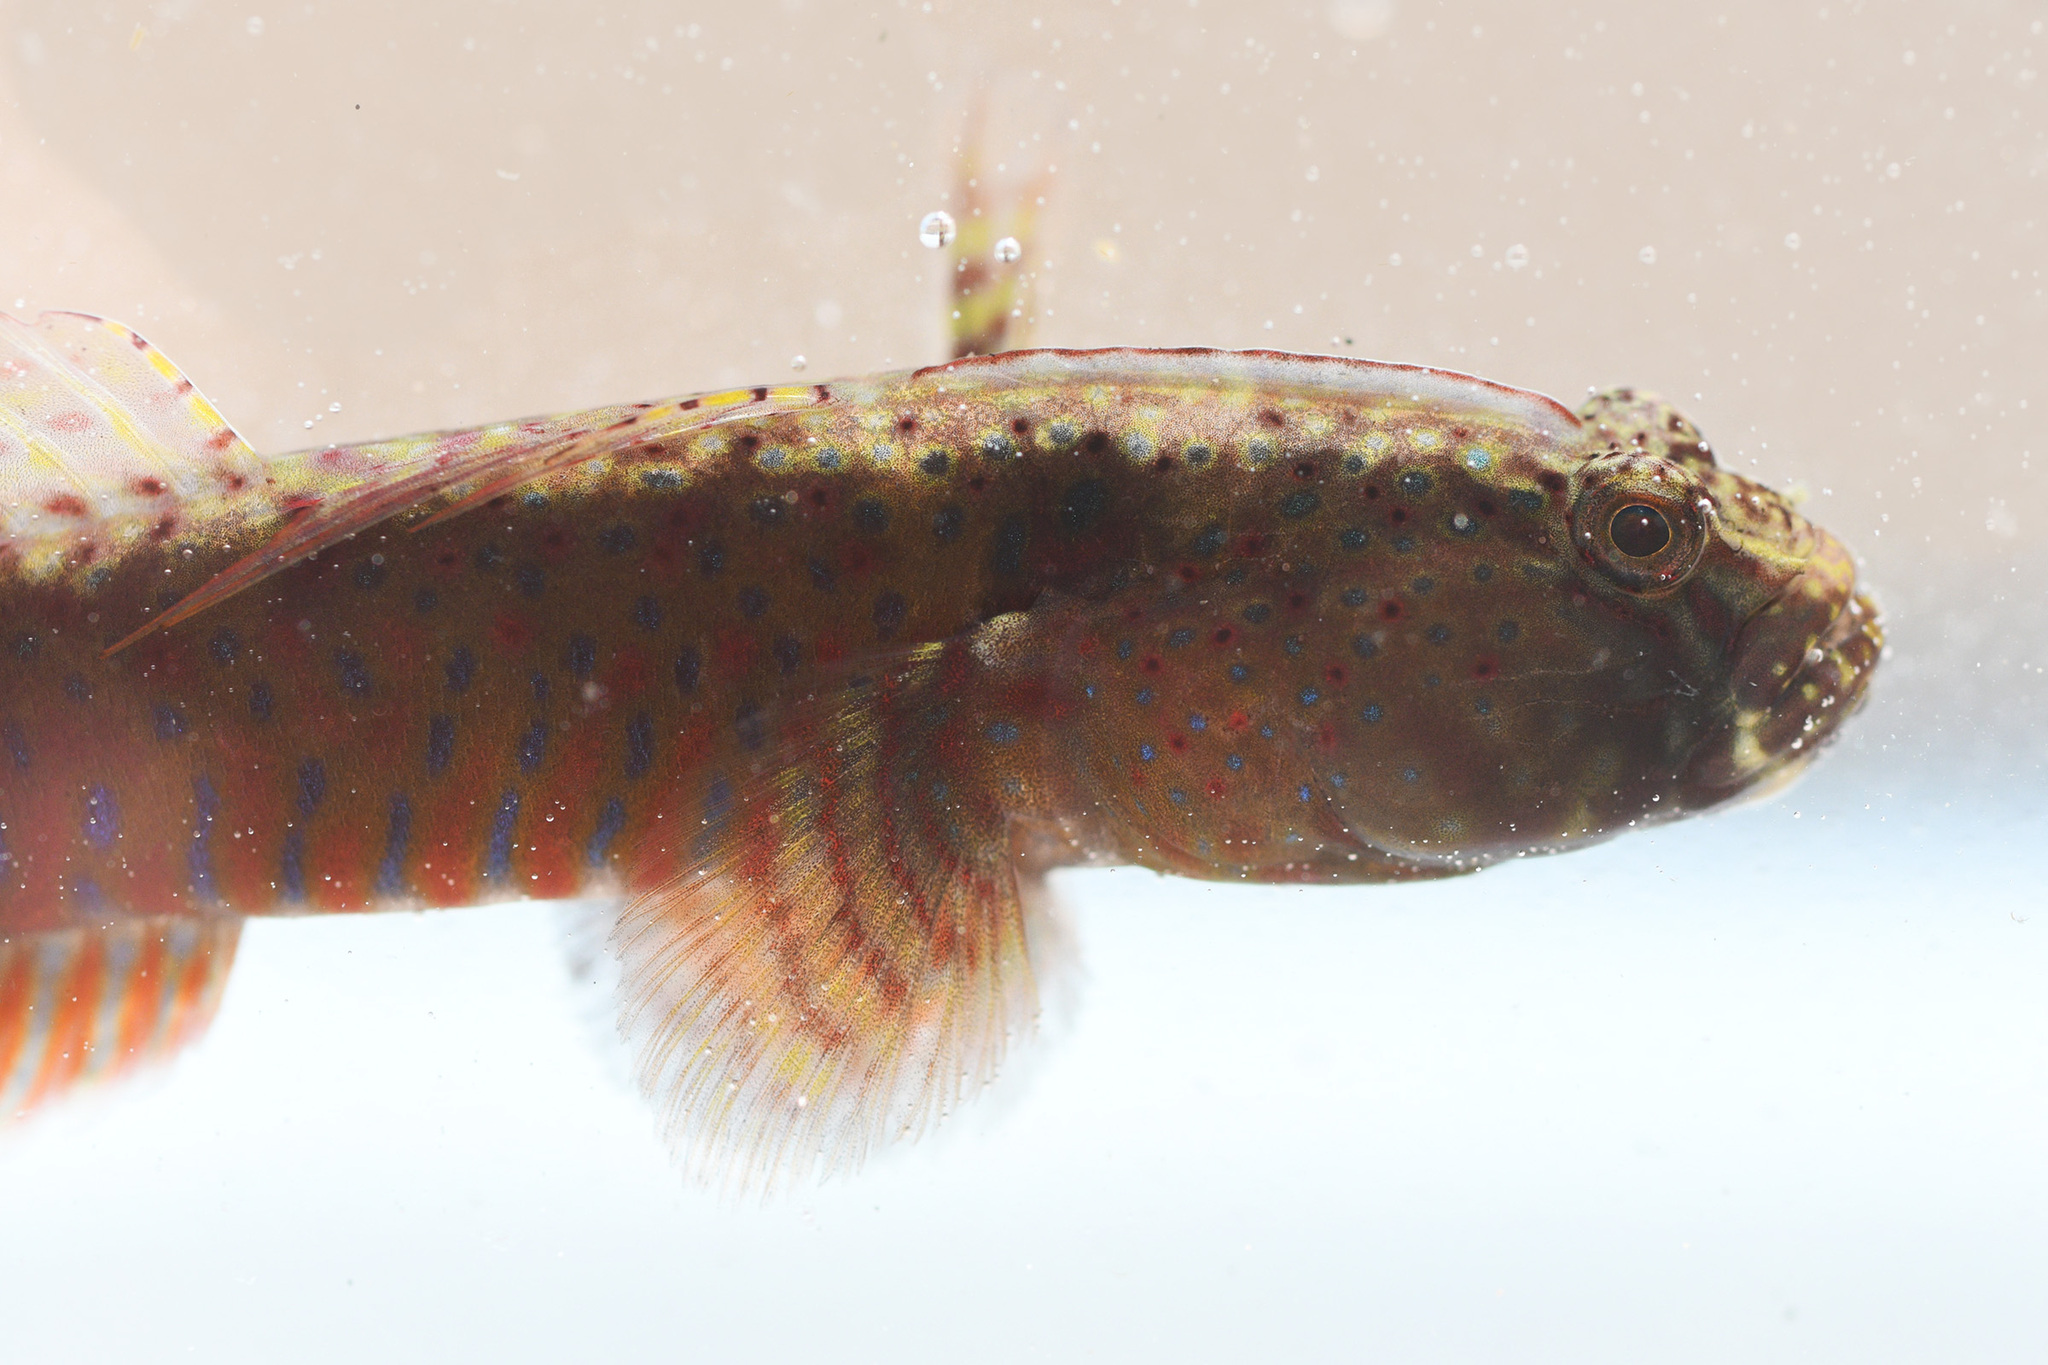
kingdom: Animalia
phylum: Chordata
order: Perciformes
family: Gobiidae
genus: Cryptocentroides
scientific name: Cryptocentroides gobioides
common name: Crested oystergoby
